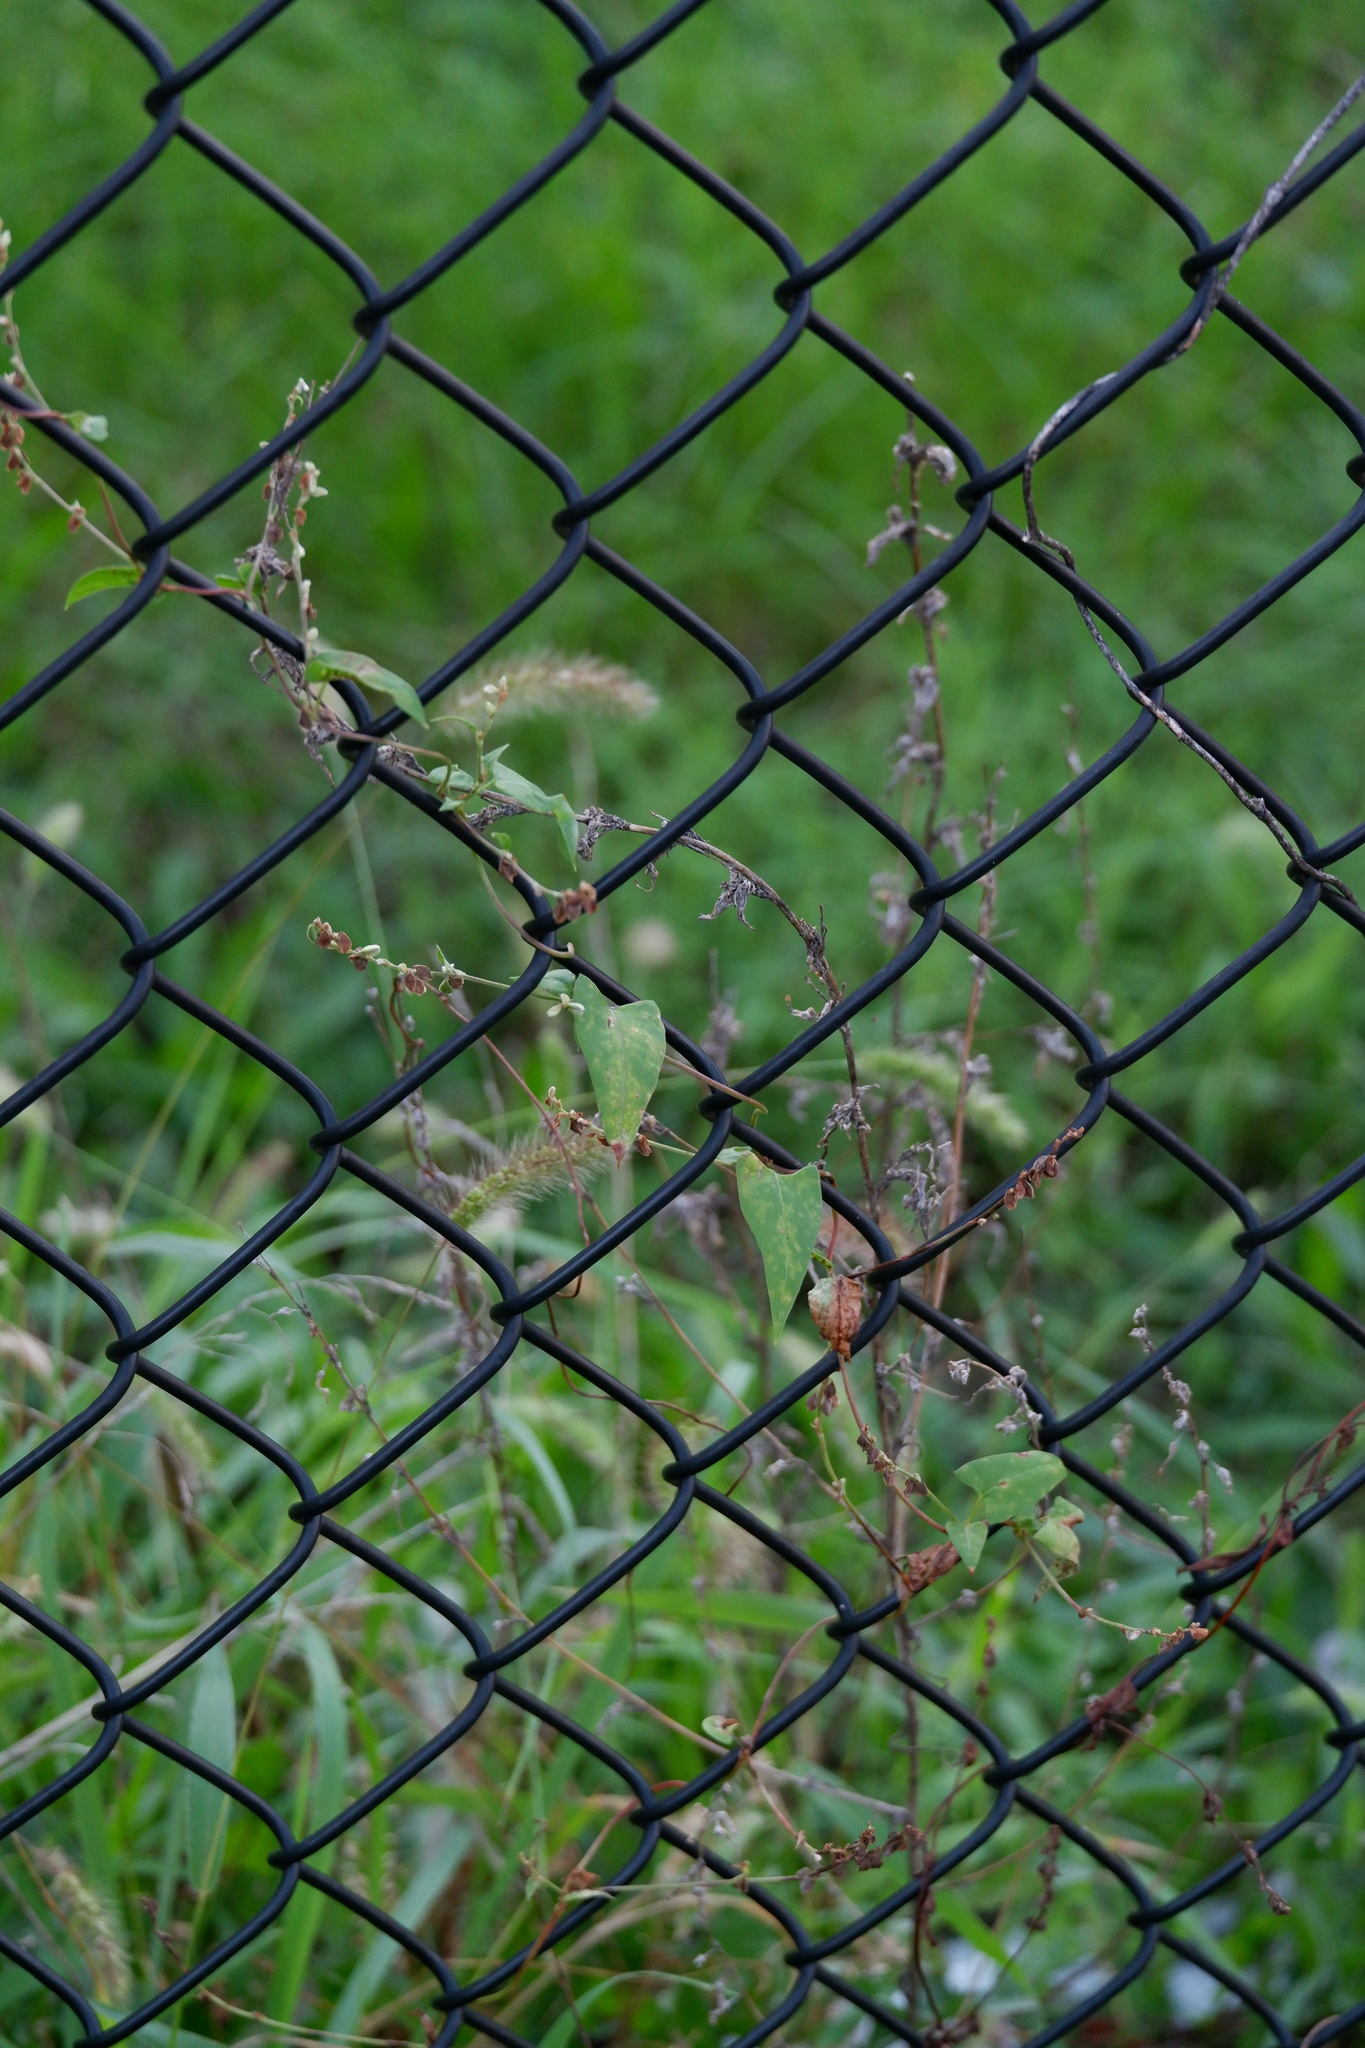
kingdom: Plantae
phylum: Tracheophyta
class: Magnoliopsida
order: Caryophyllales
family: Polygonaceae
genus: Fallopia
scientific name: Fallopia scandens
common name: Climbing false buckwheat
